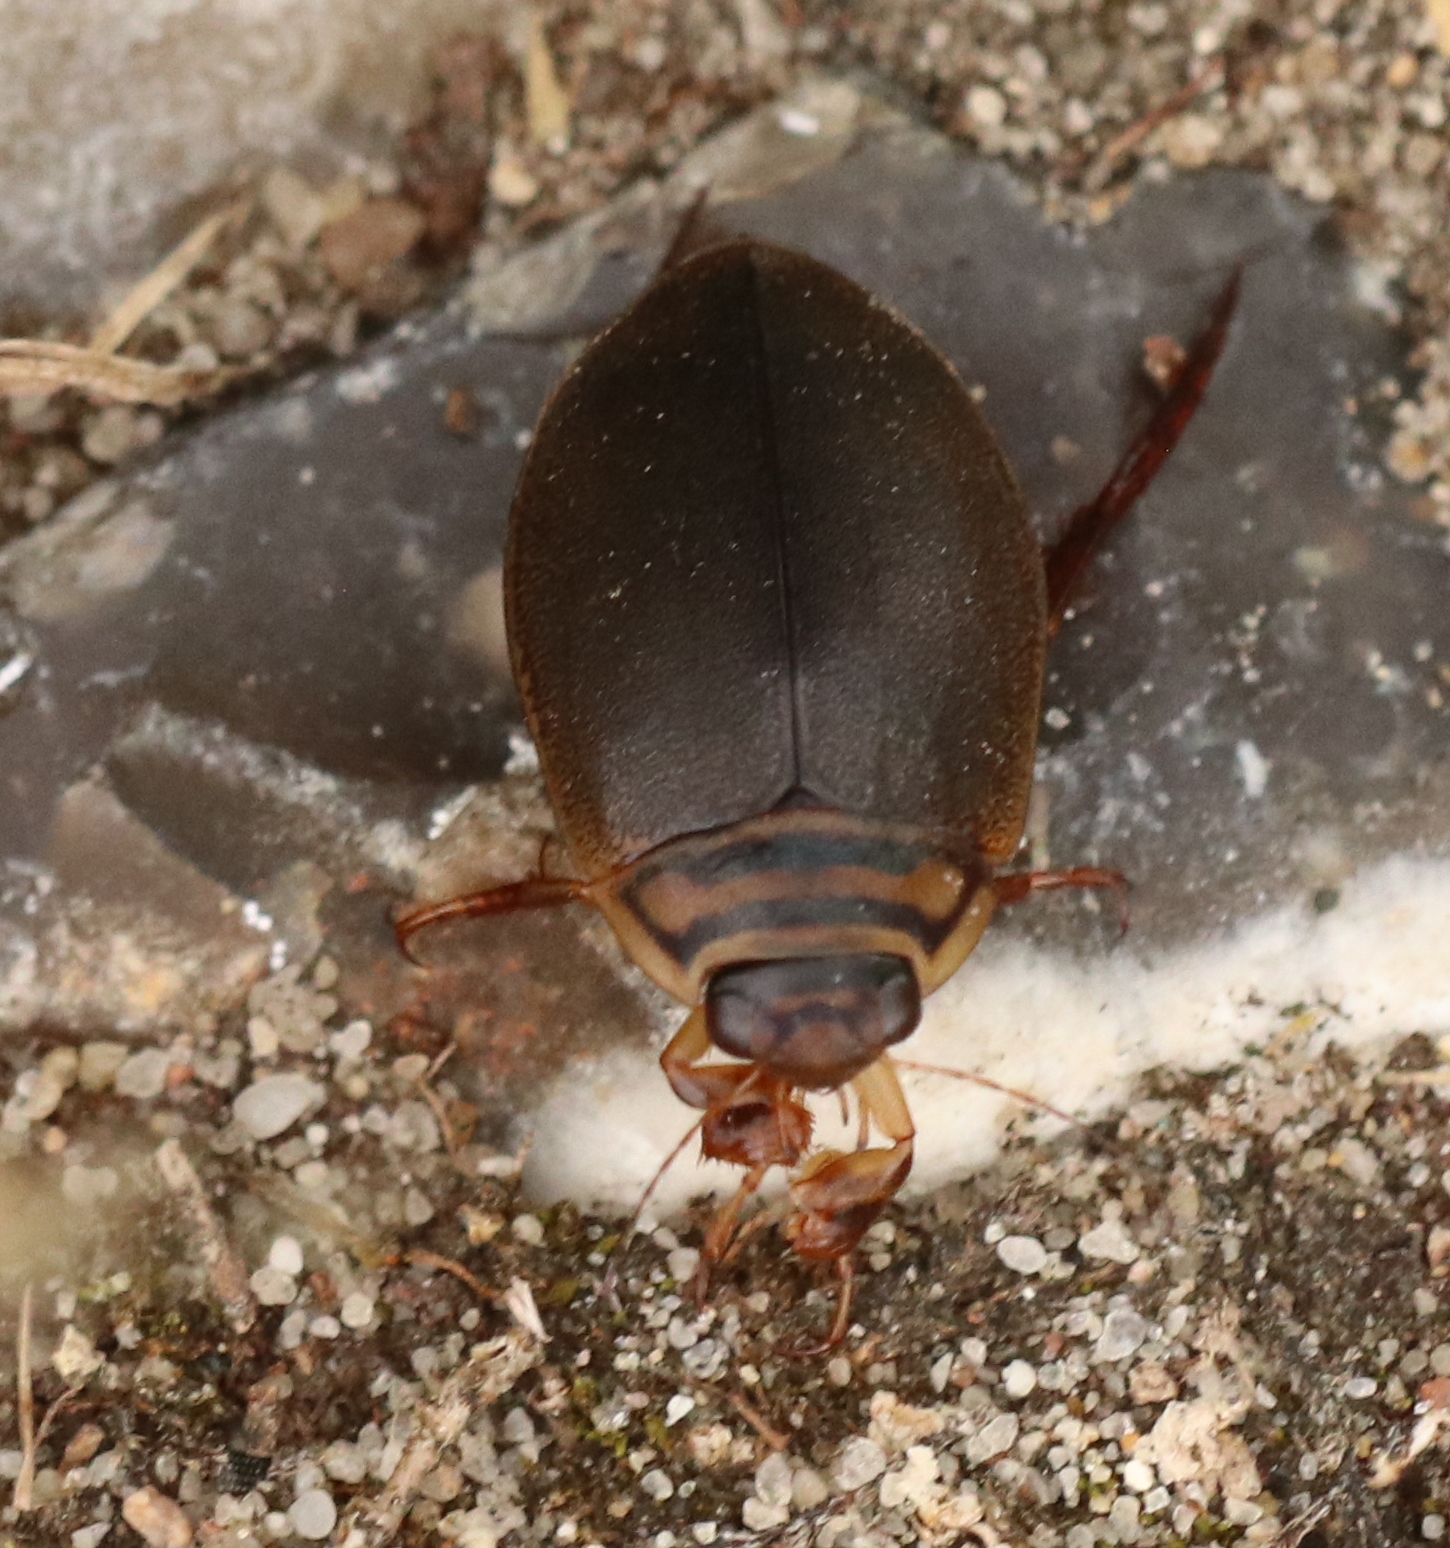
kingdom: Animalia
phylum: Arthropoda
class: Insecta
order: Coleoptera
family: Dytiscidae
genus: Acilius
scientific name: Acilius canaliculatus
